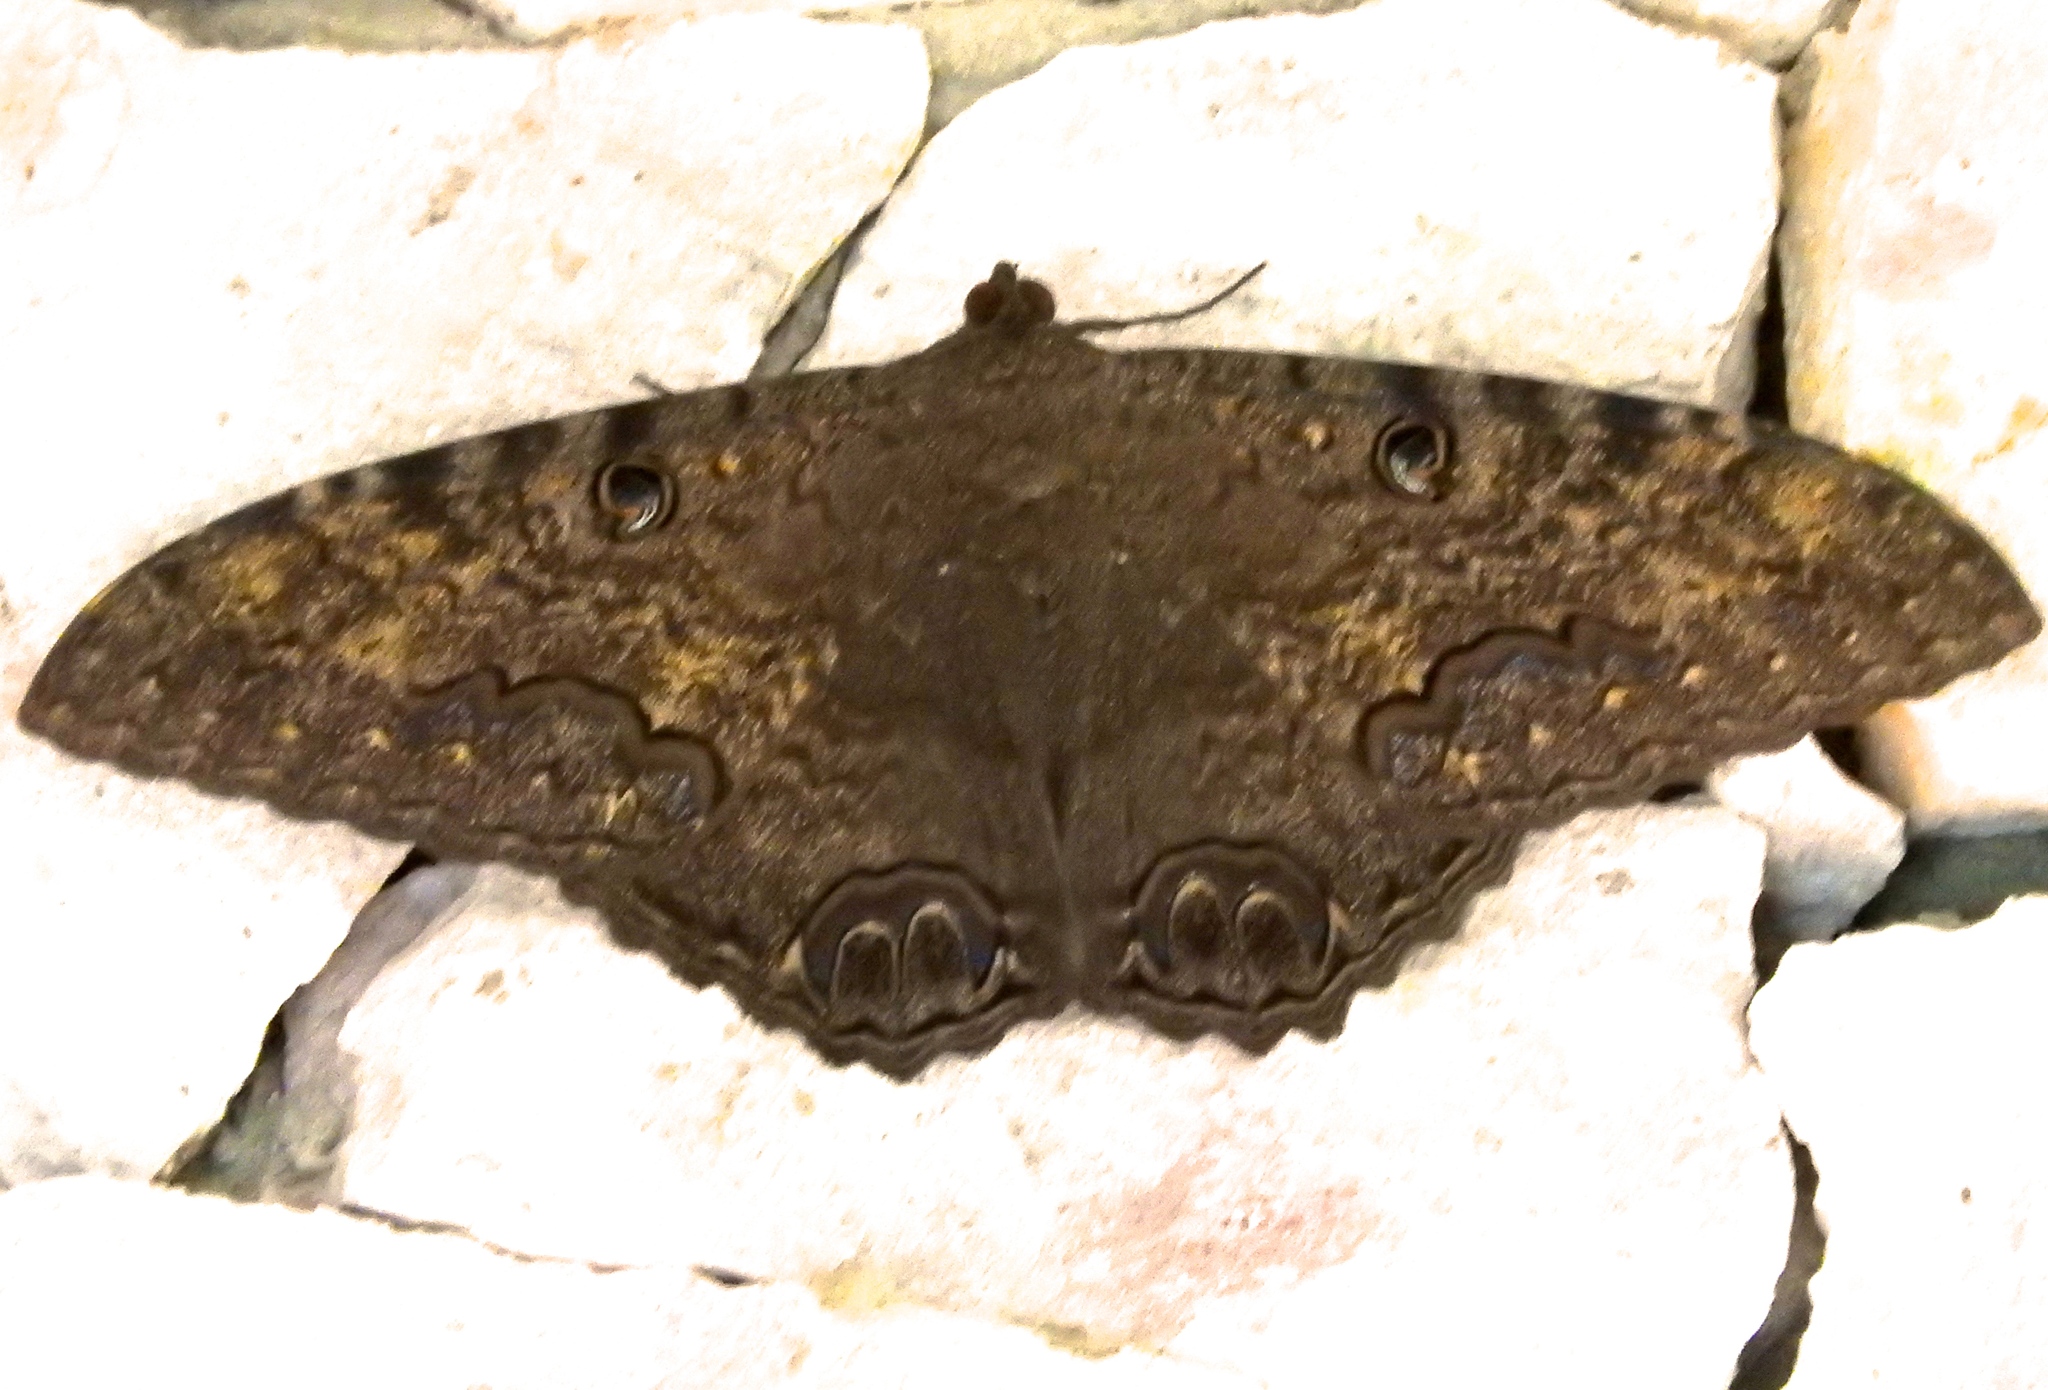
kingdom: Animalia
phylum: Arthropoda
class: Insecta
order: Lepidoptera
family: Erebidae
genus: Ascalapha
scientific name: Ascalapha odorata
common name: Black witch
